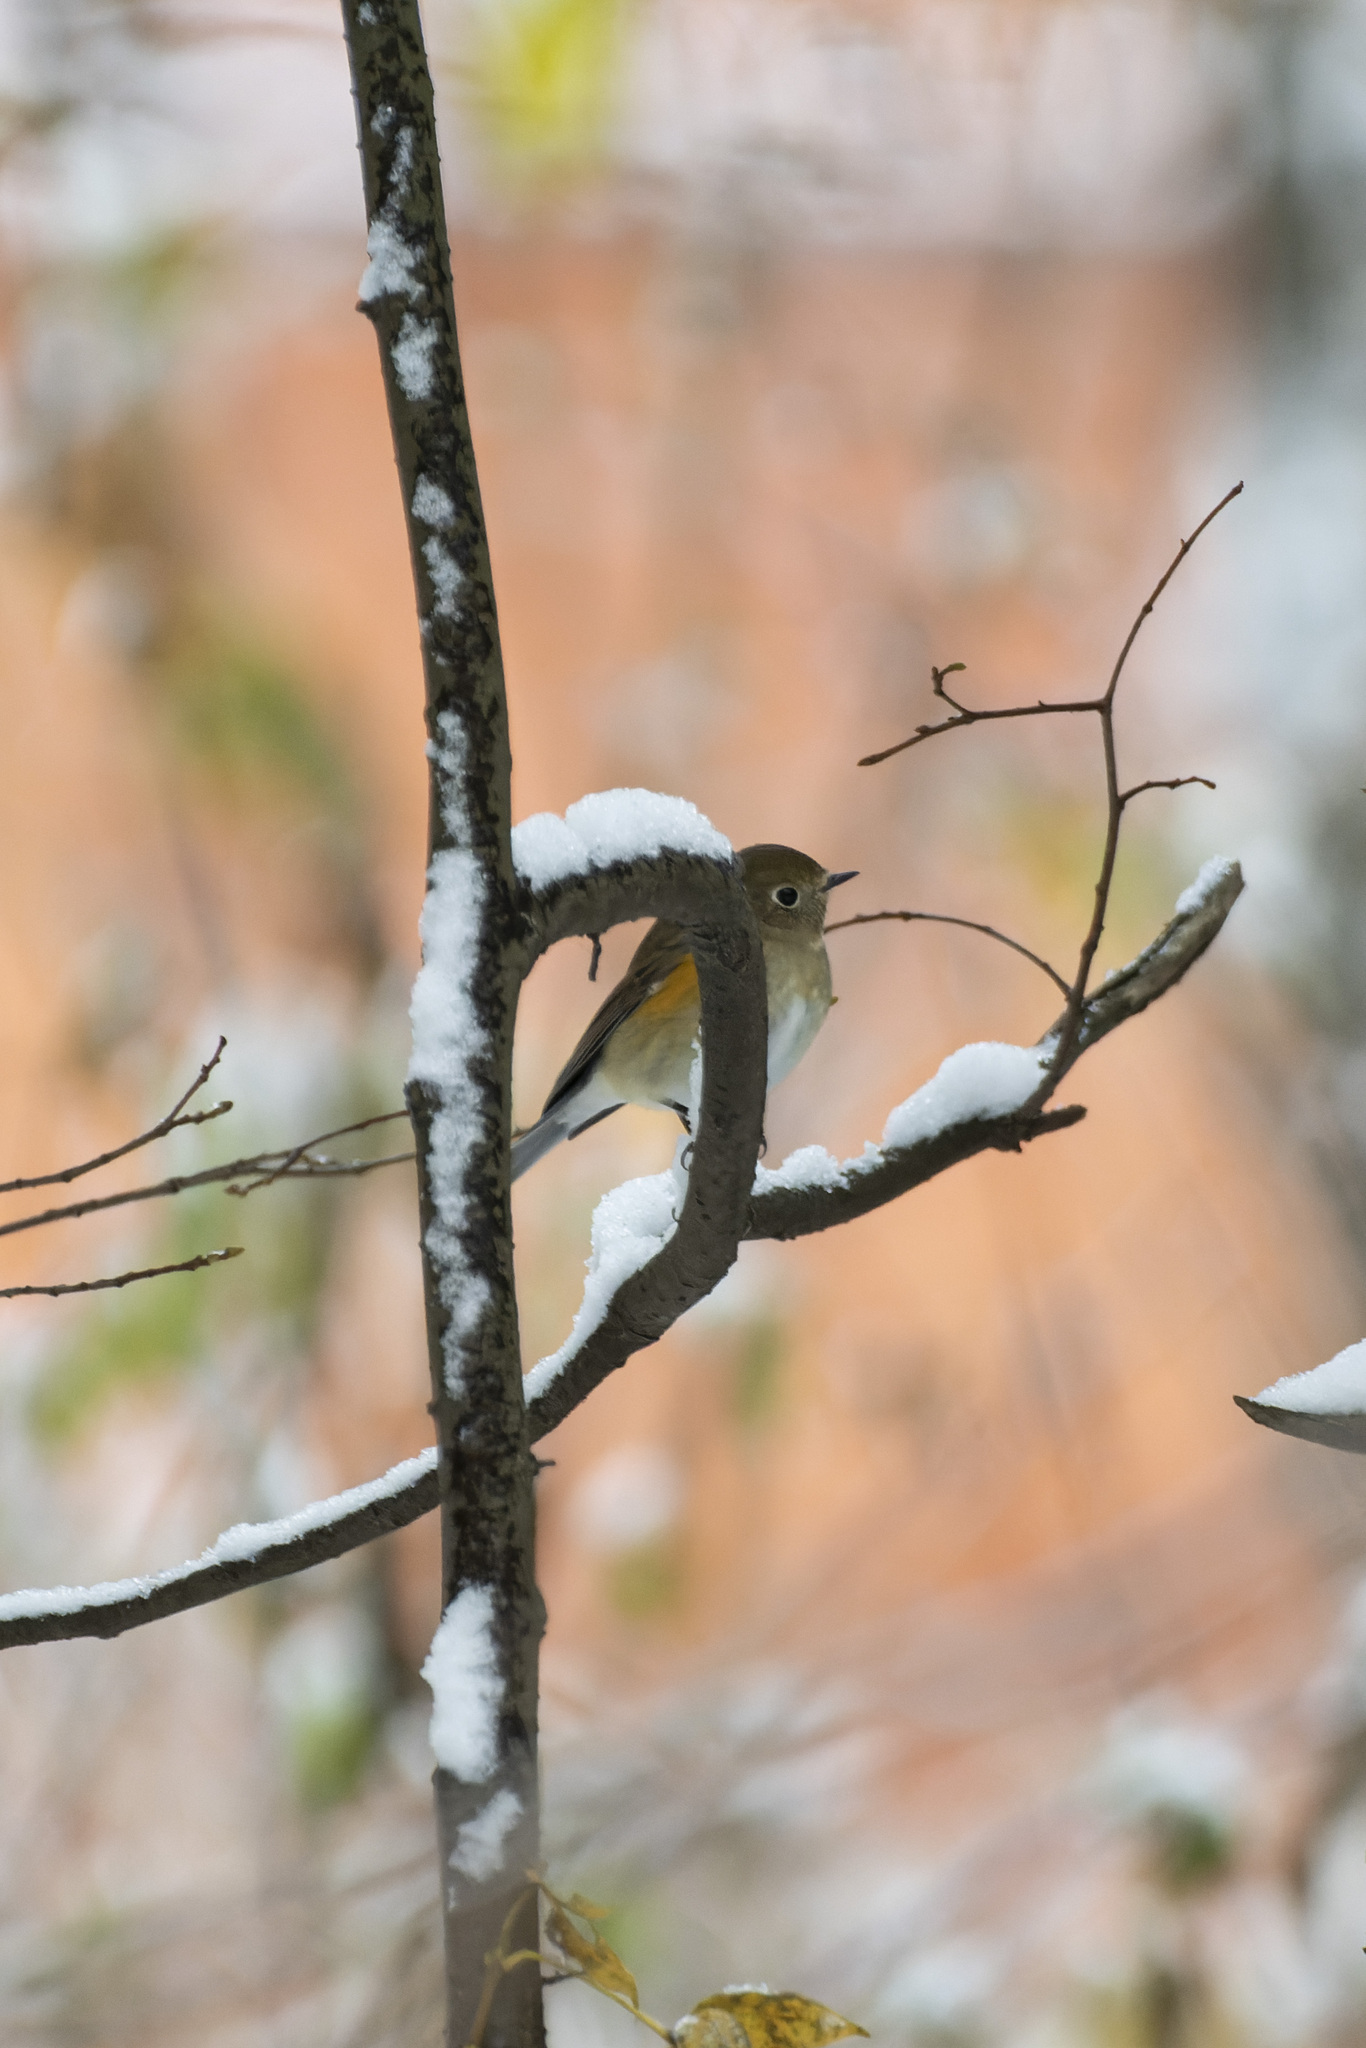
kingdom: Animalia
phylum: Chordata
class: Aves
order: Passeriformes
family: Muscicapidae
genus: Tarsiger
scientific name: Tarsiger cyanurus
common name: Red-flanked bluetail
